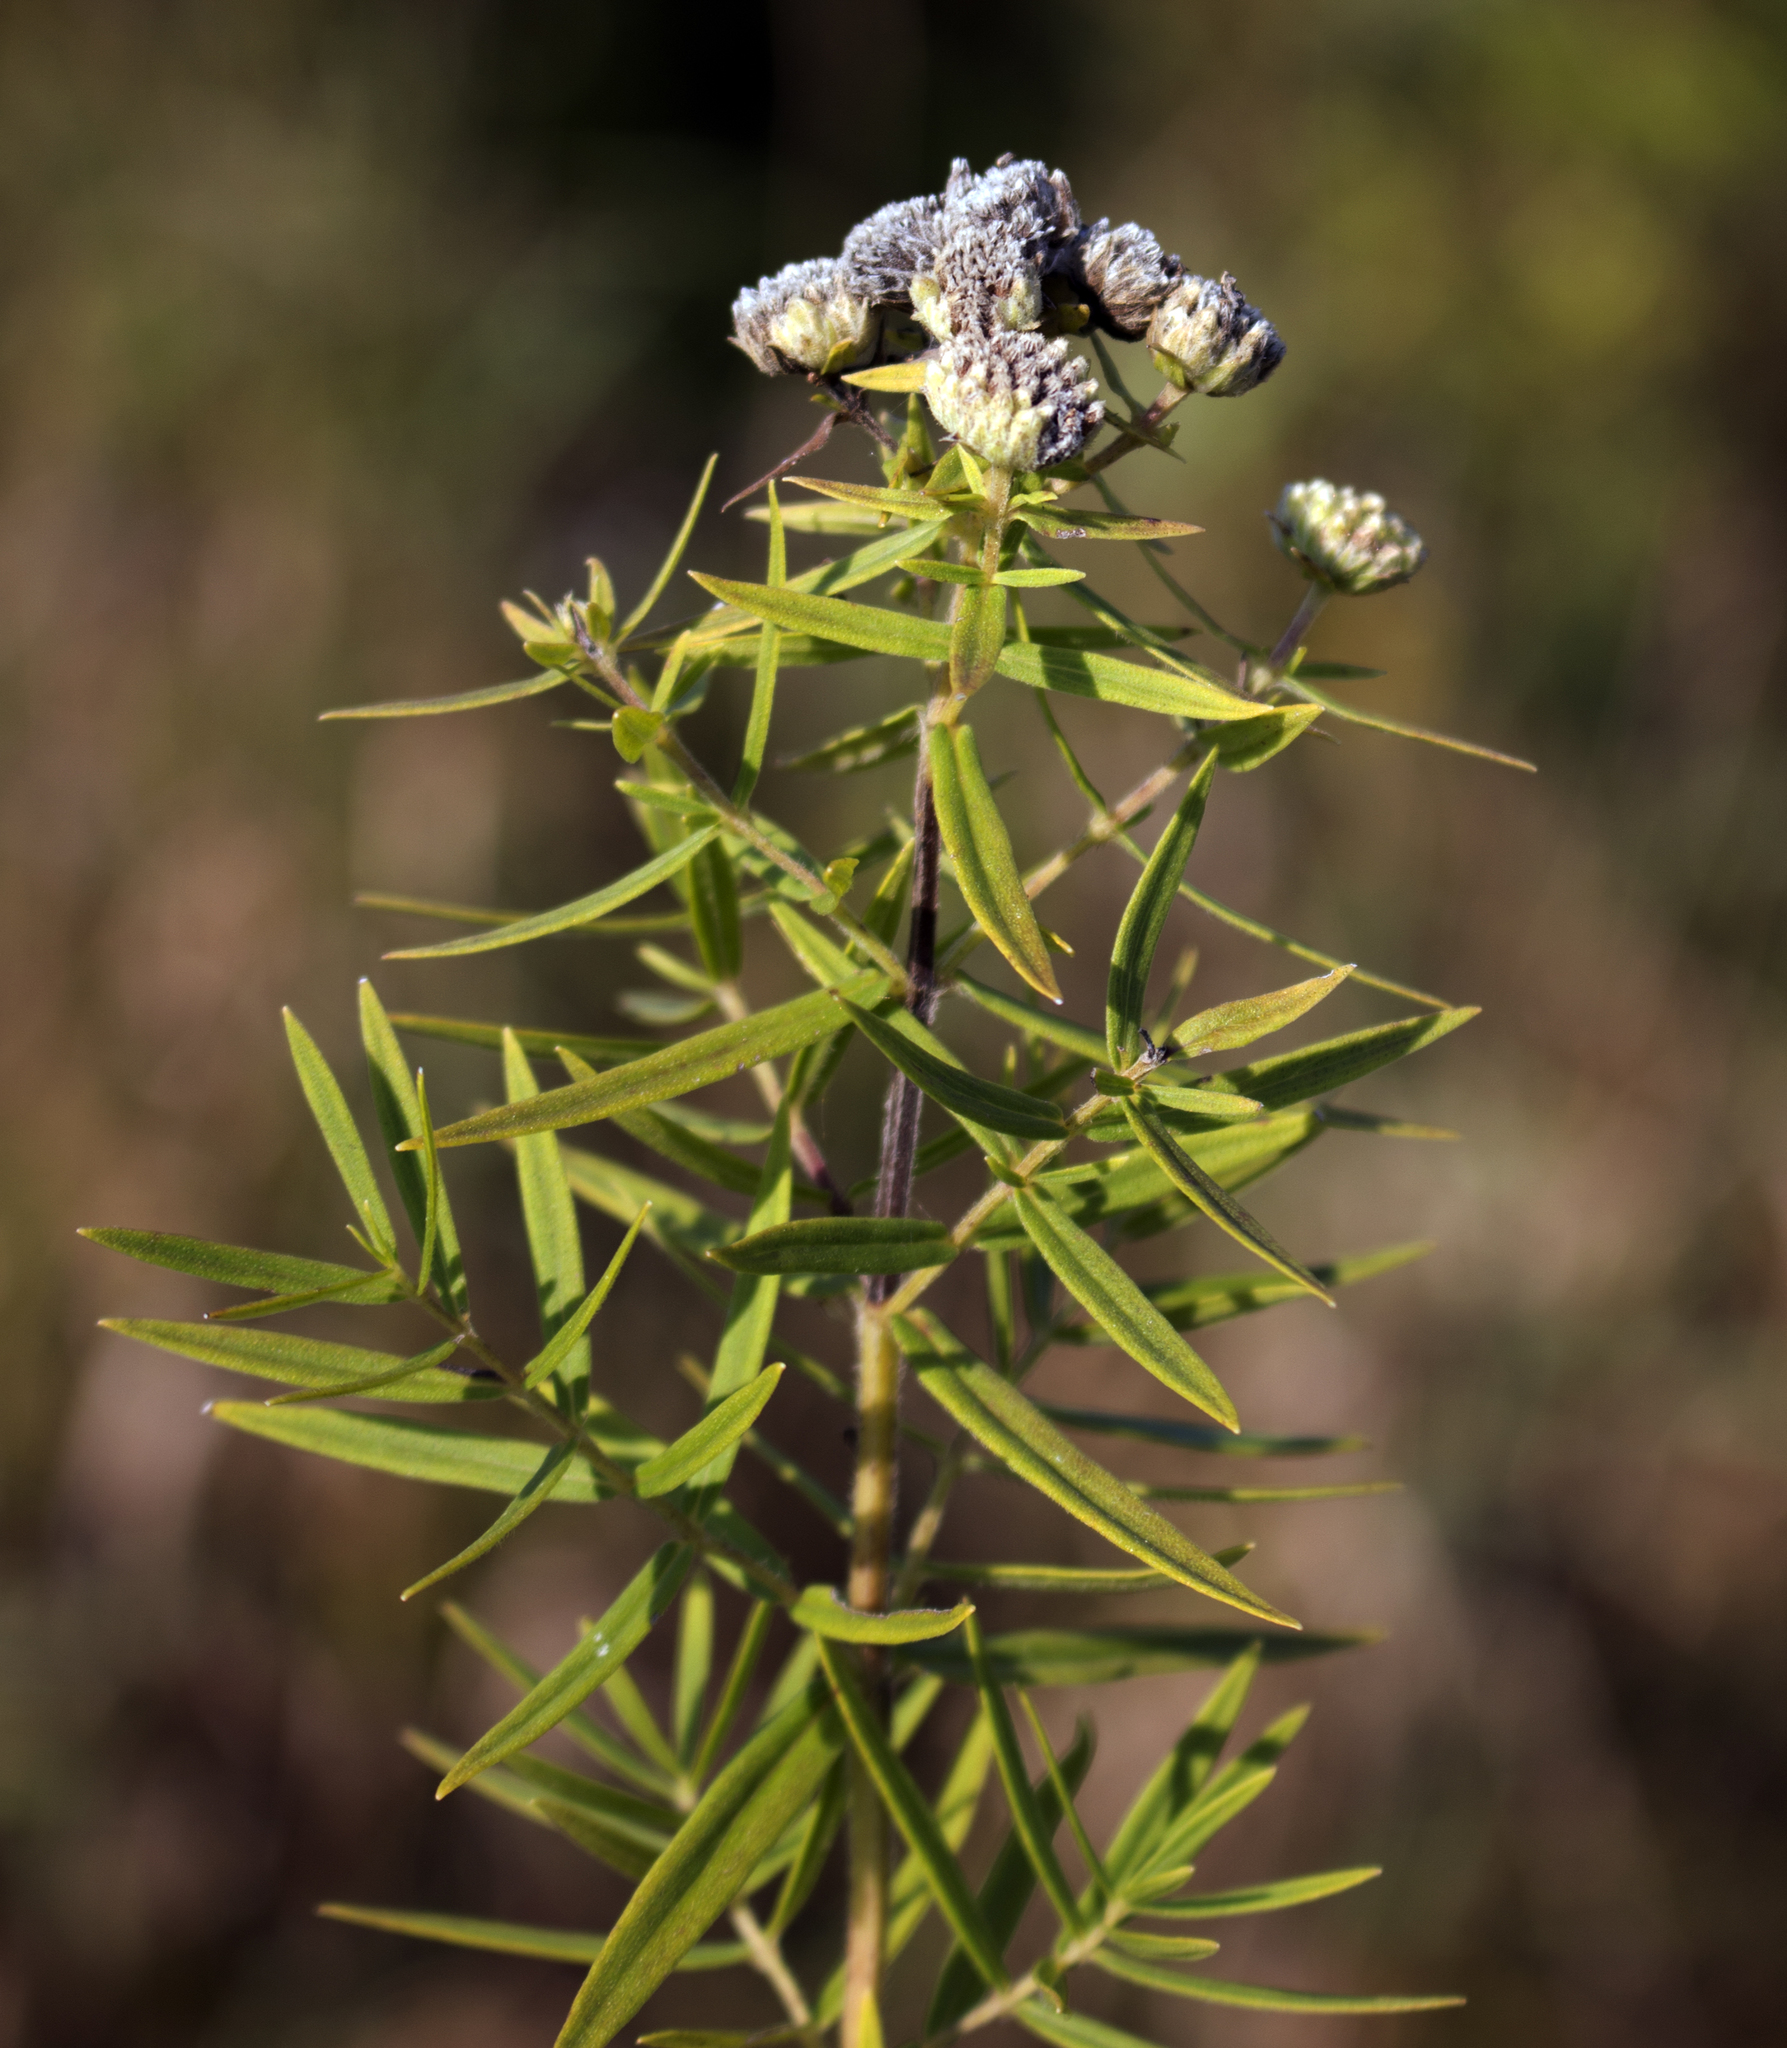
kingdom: Plantae
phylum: Tracheophyta
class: Magnoliopsida
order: Lamiales
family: Lamiaceae
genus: Pycnanthemum
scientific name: Pycnanthemum virginianum
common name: Virginia mountain-mint
